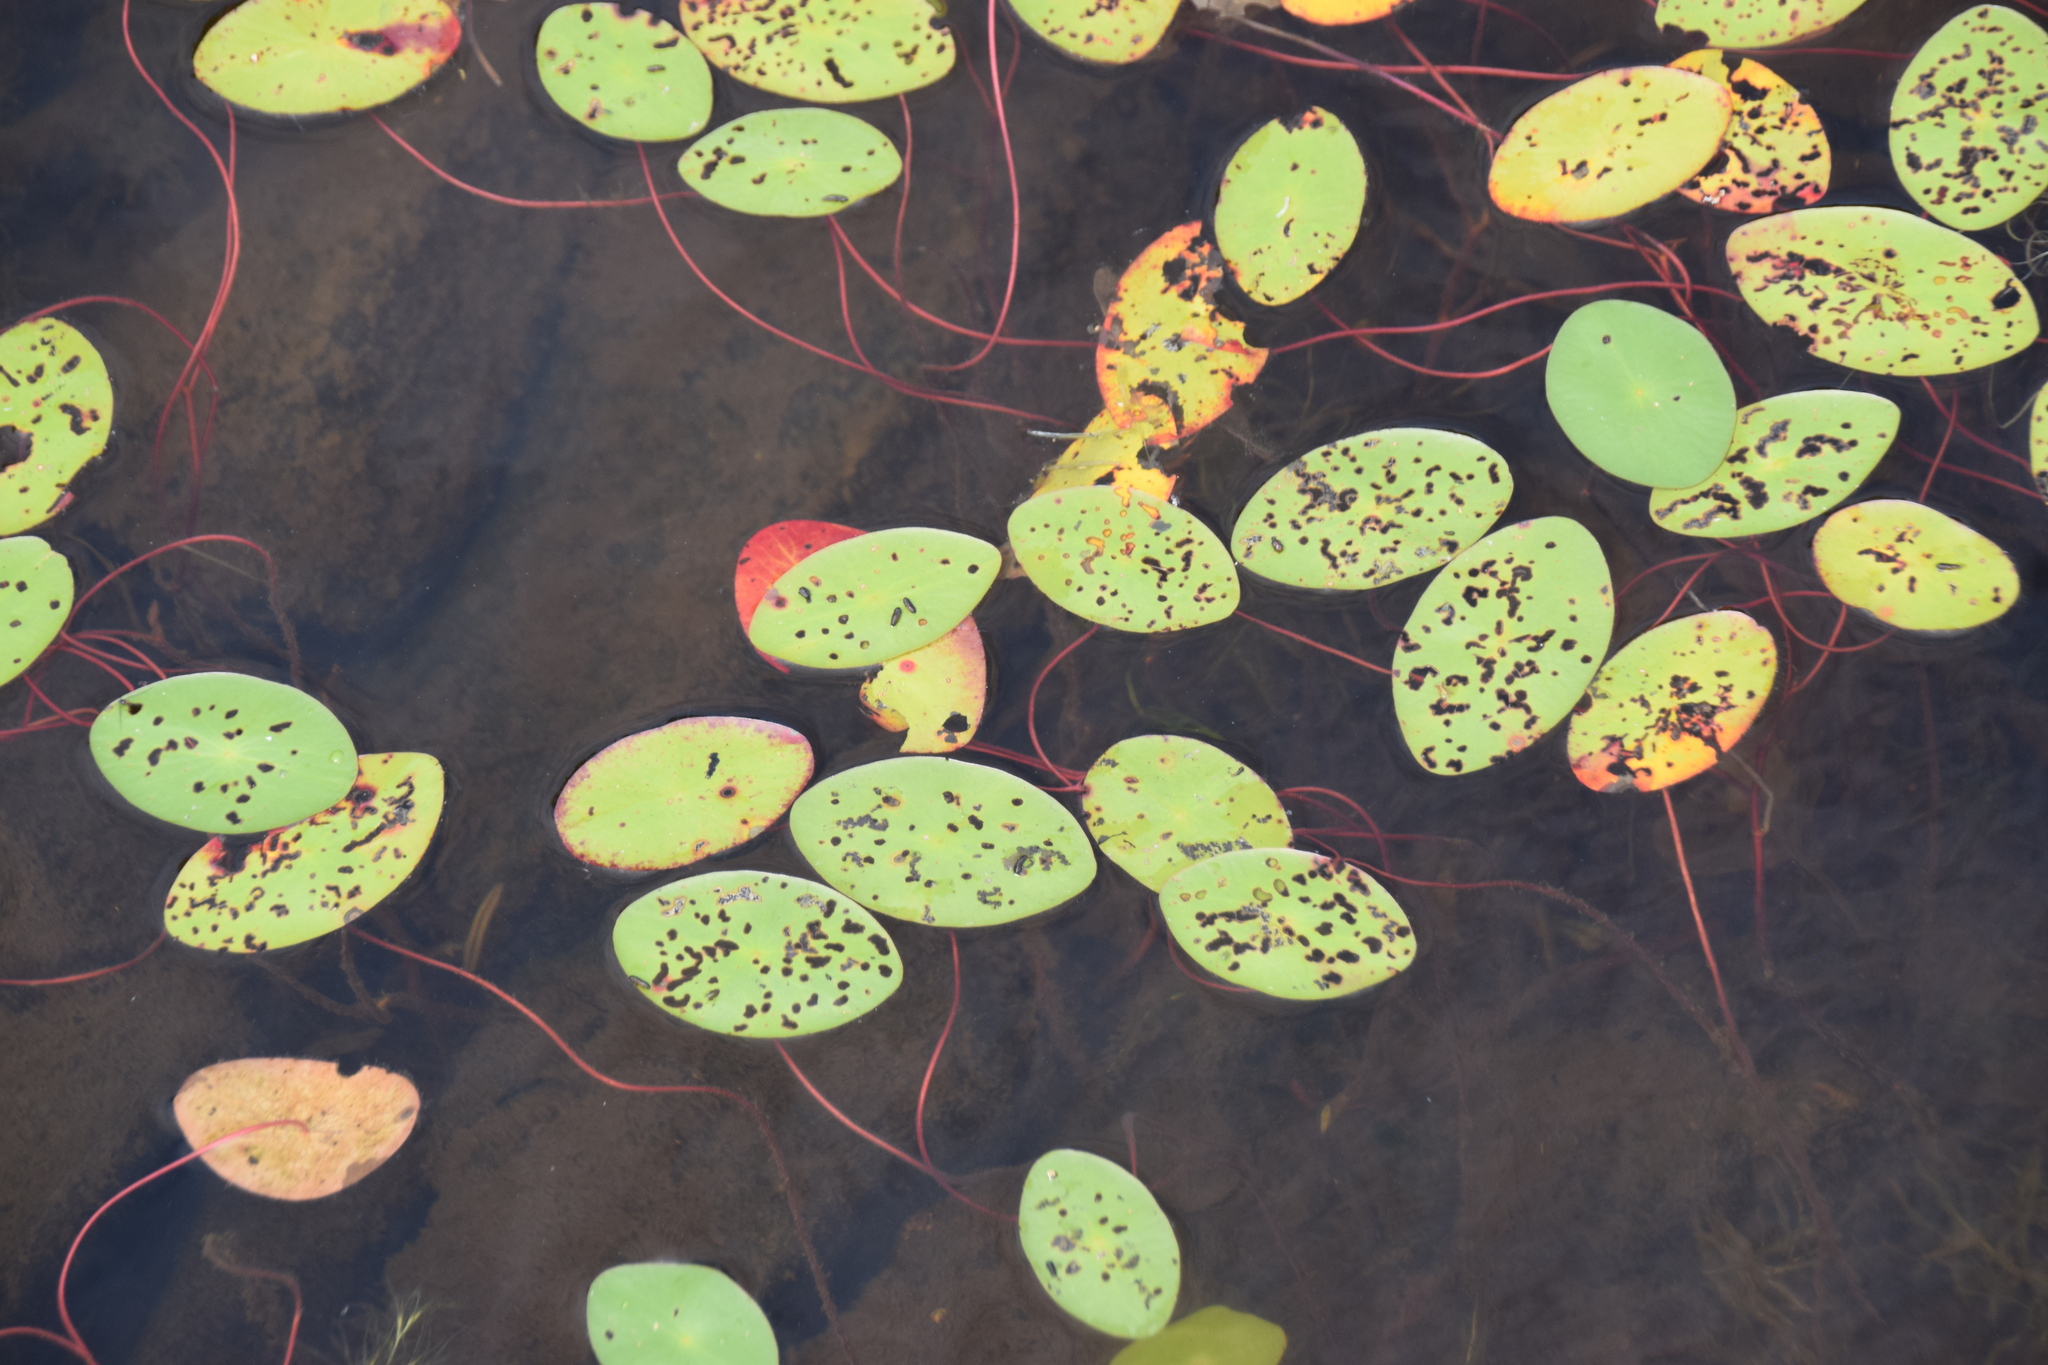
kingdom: Plantae
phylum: Tracheophyta
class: Magnoliopsida
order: Nymphaeales
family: Cabombaceae
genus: Brasenia
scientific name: Brasenia schreberi
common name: Water-shield
